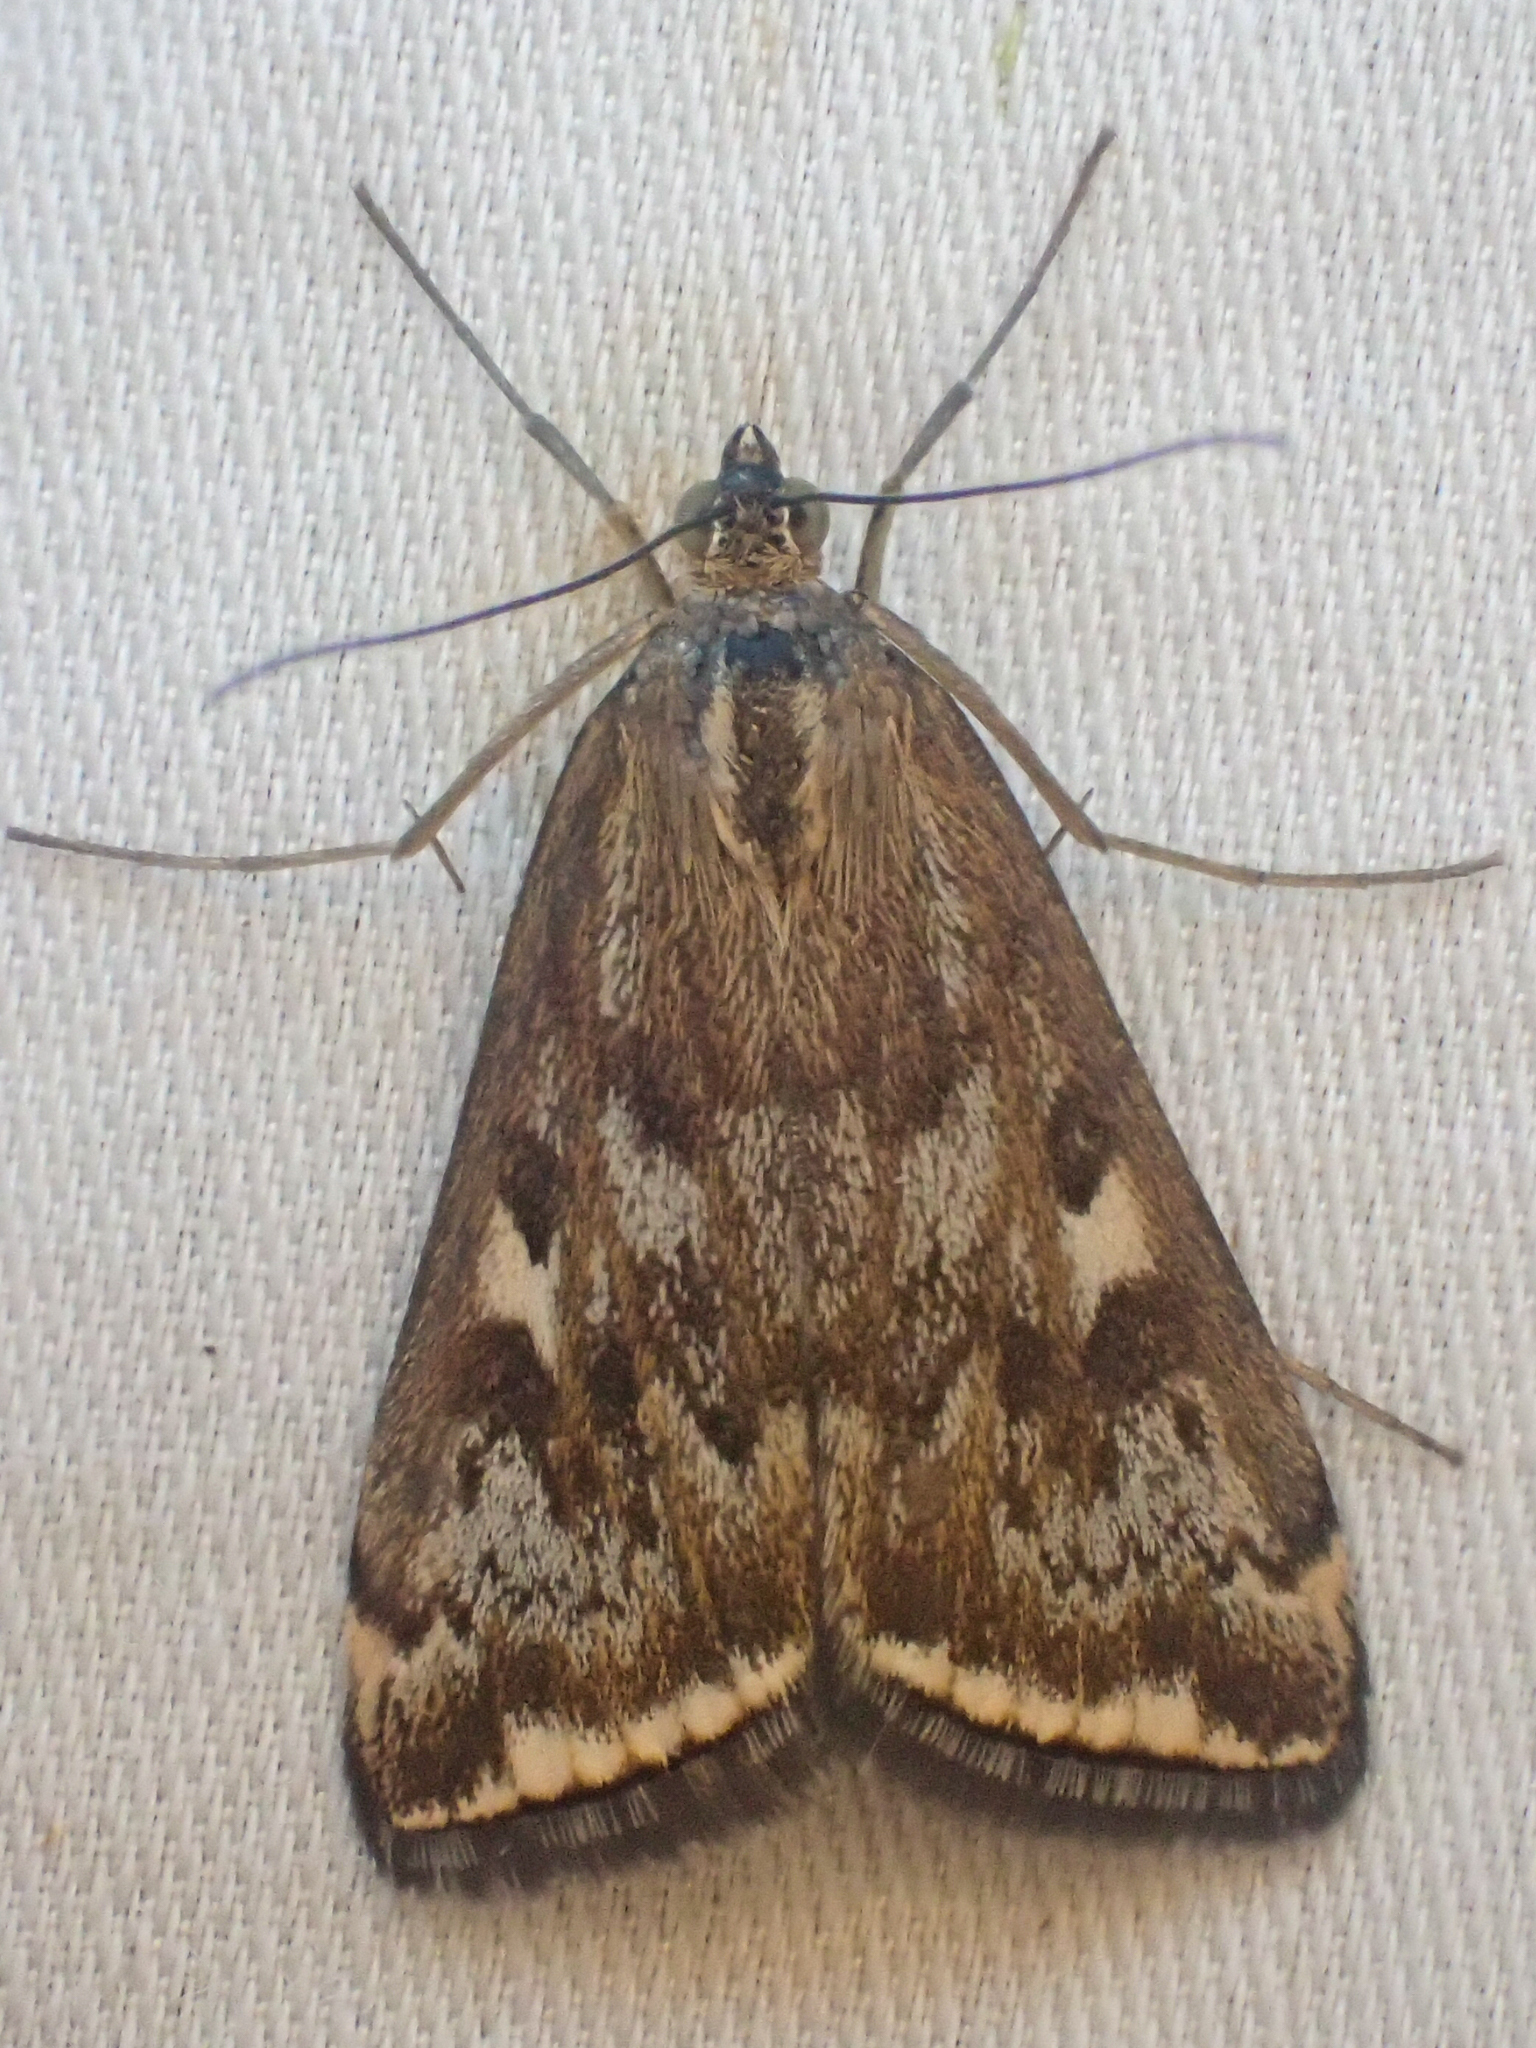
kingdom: Animalia
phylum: Arthropoda
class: Insecta
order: Lepidoptera
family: Crambidae
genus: Loxostege
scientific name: Loxostege
